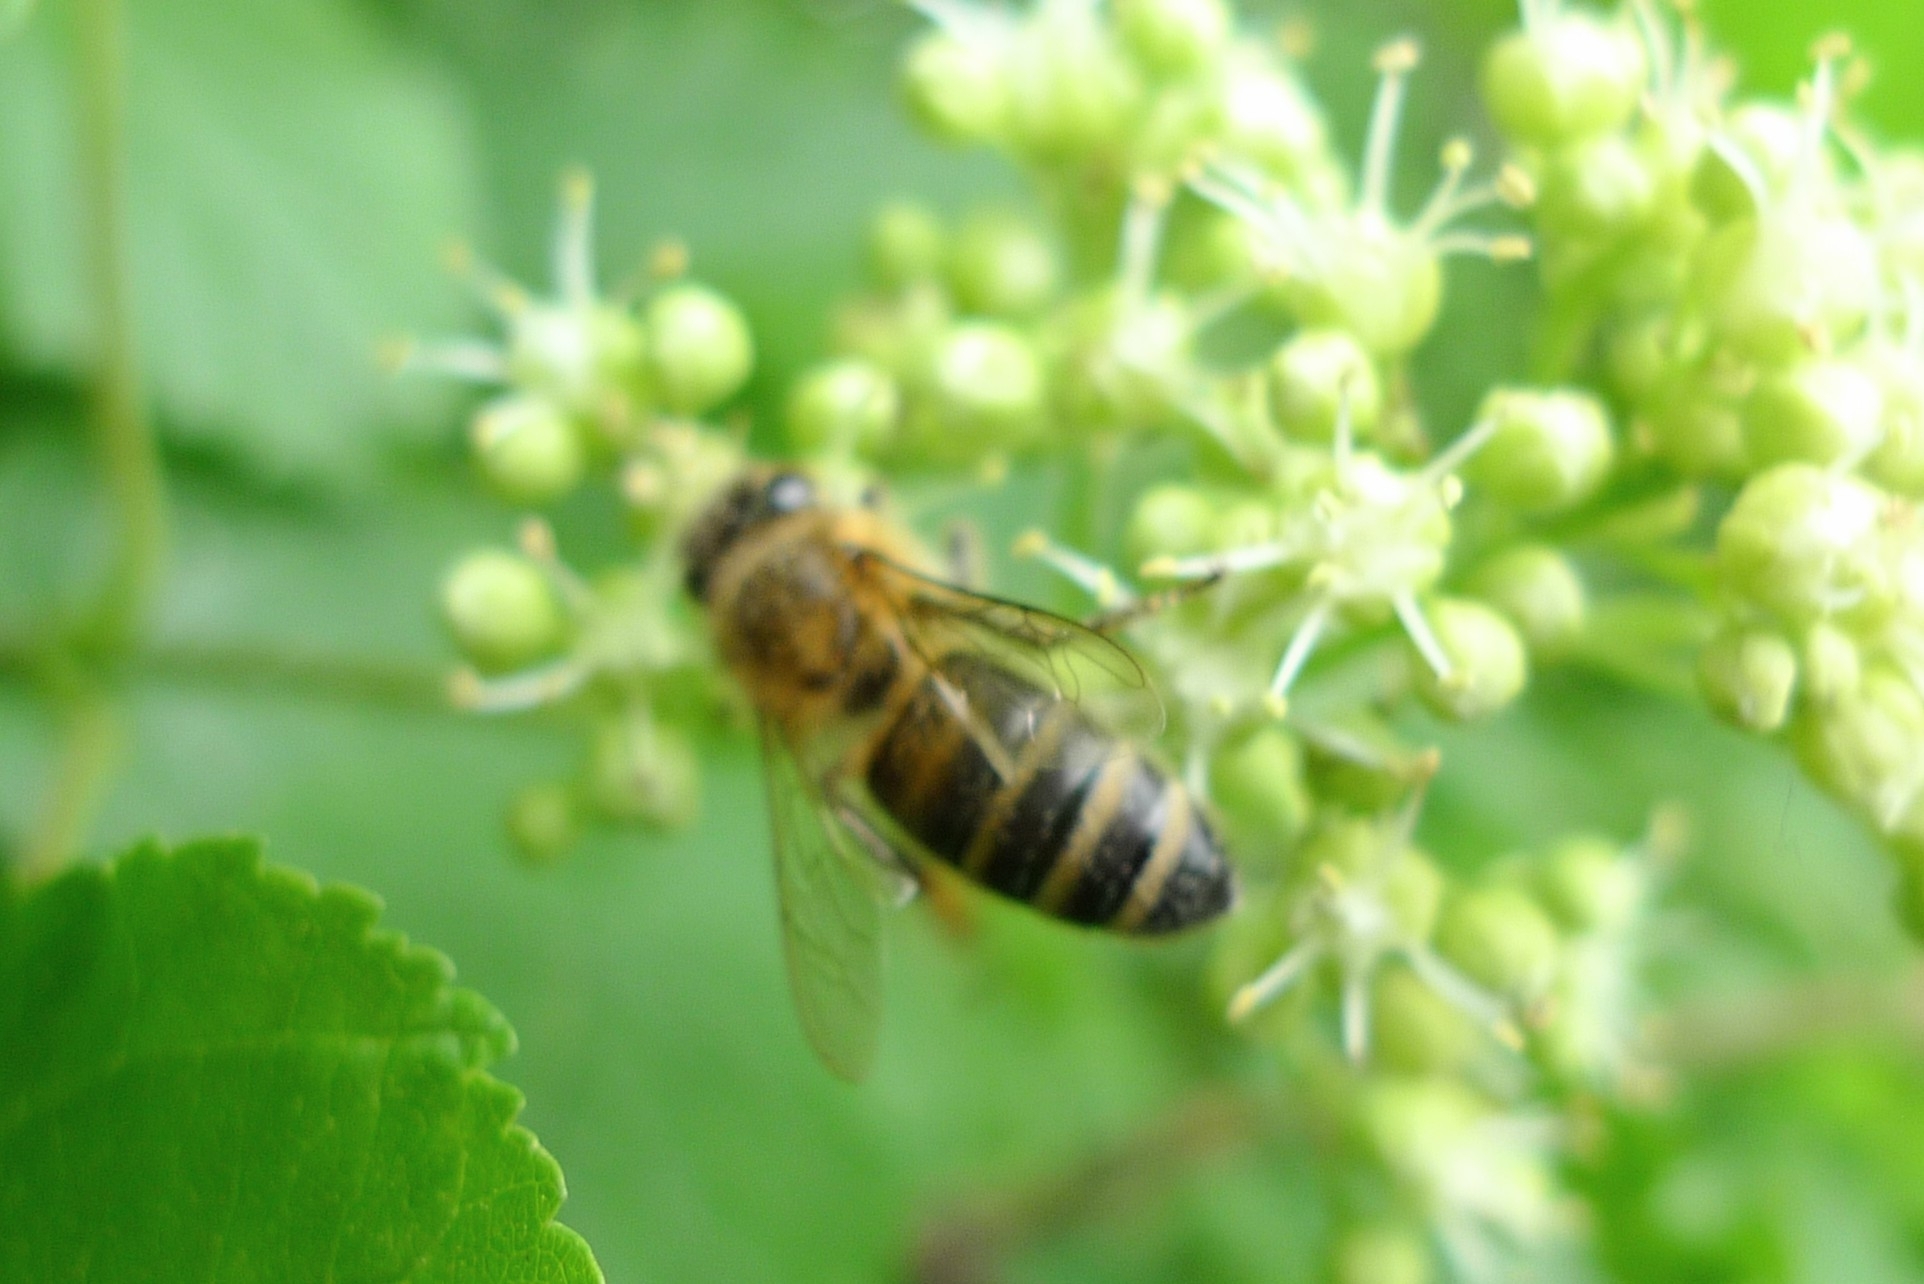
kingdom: Animalia
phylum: Arthropoda
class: Insecta
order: Hymenoptera
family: Apidae
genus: Apis
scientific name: Apis mellifera
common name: Honey bee
